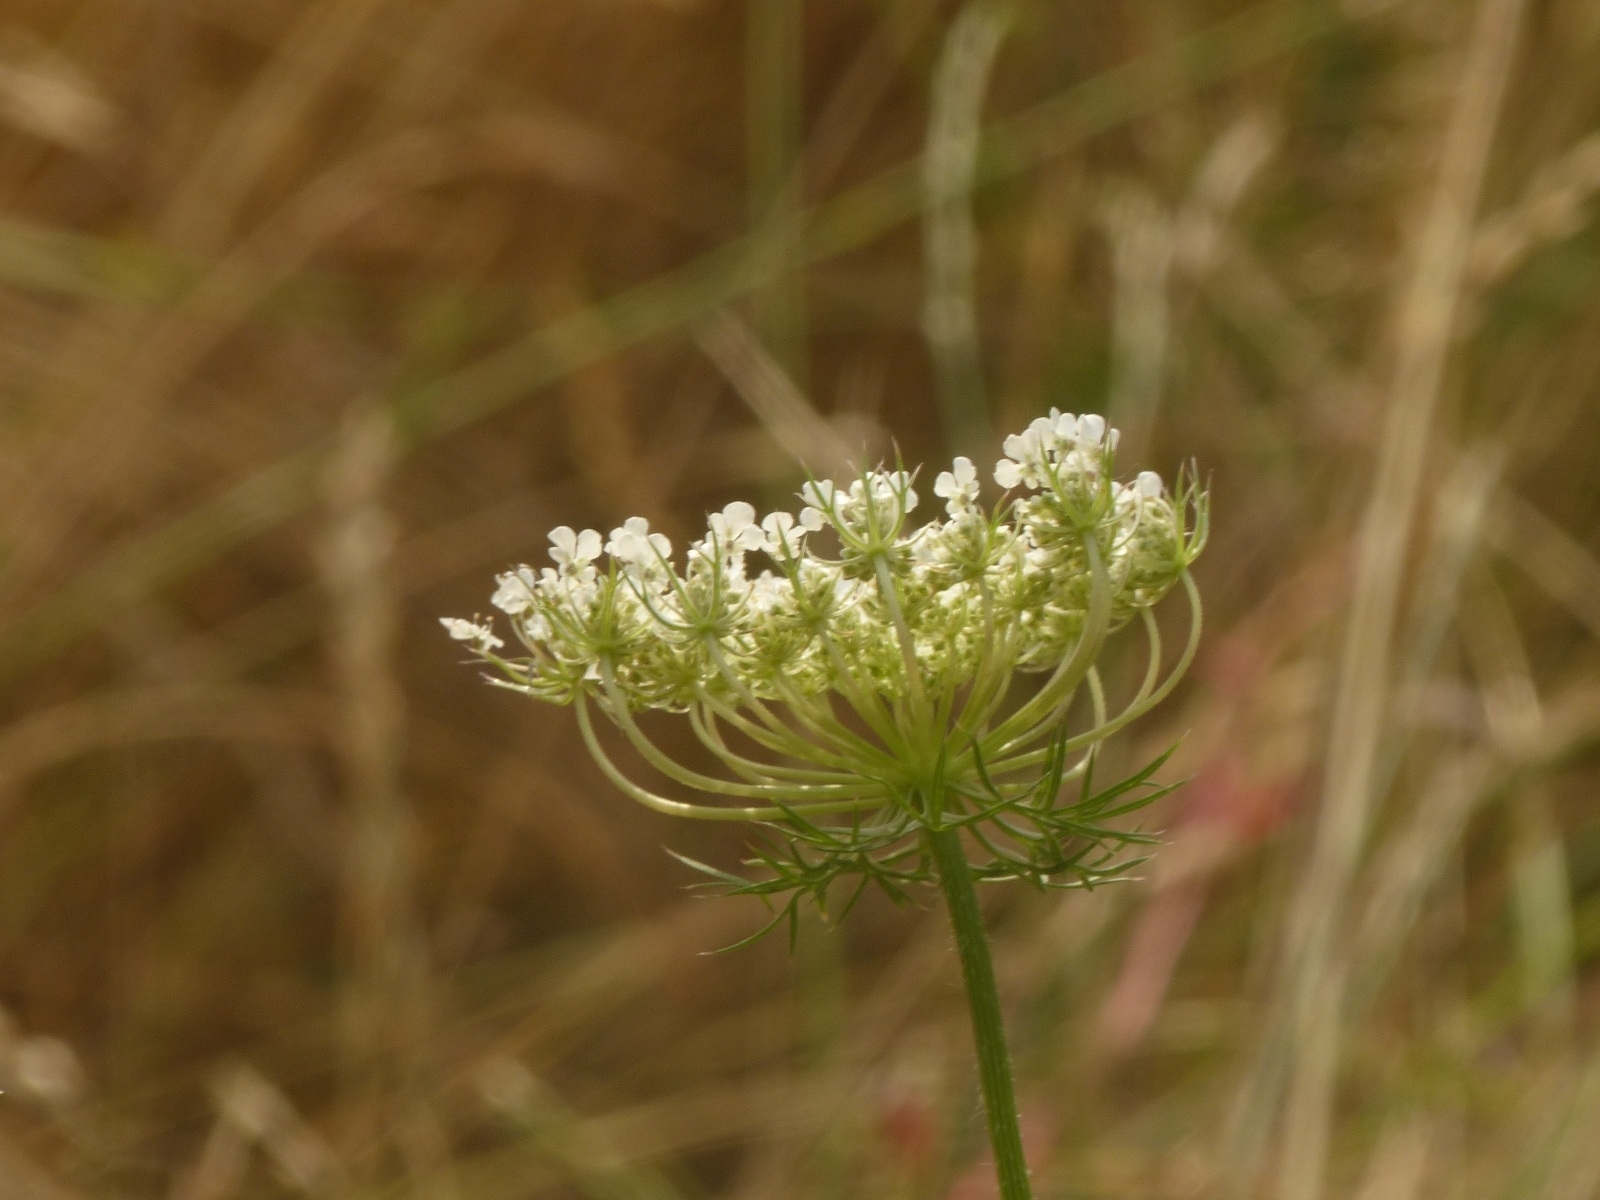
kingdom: Plantae
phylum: Tracheophyta
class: Magnoliopsida
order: Apiales
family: Apiaceae
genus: Daucus
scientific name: Daucus carota
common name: Wild carrot
